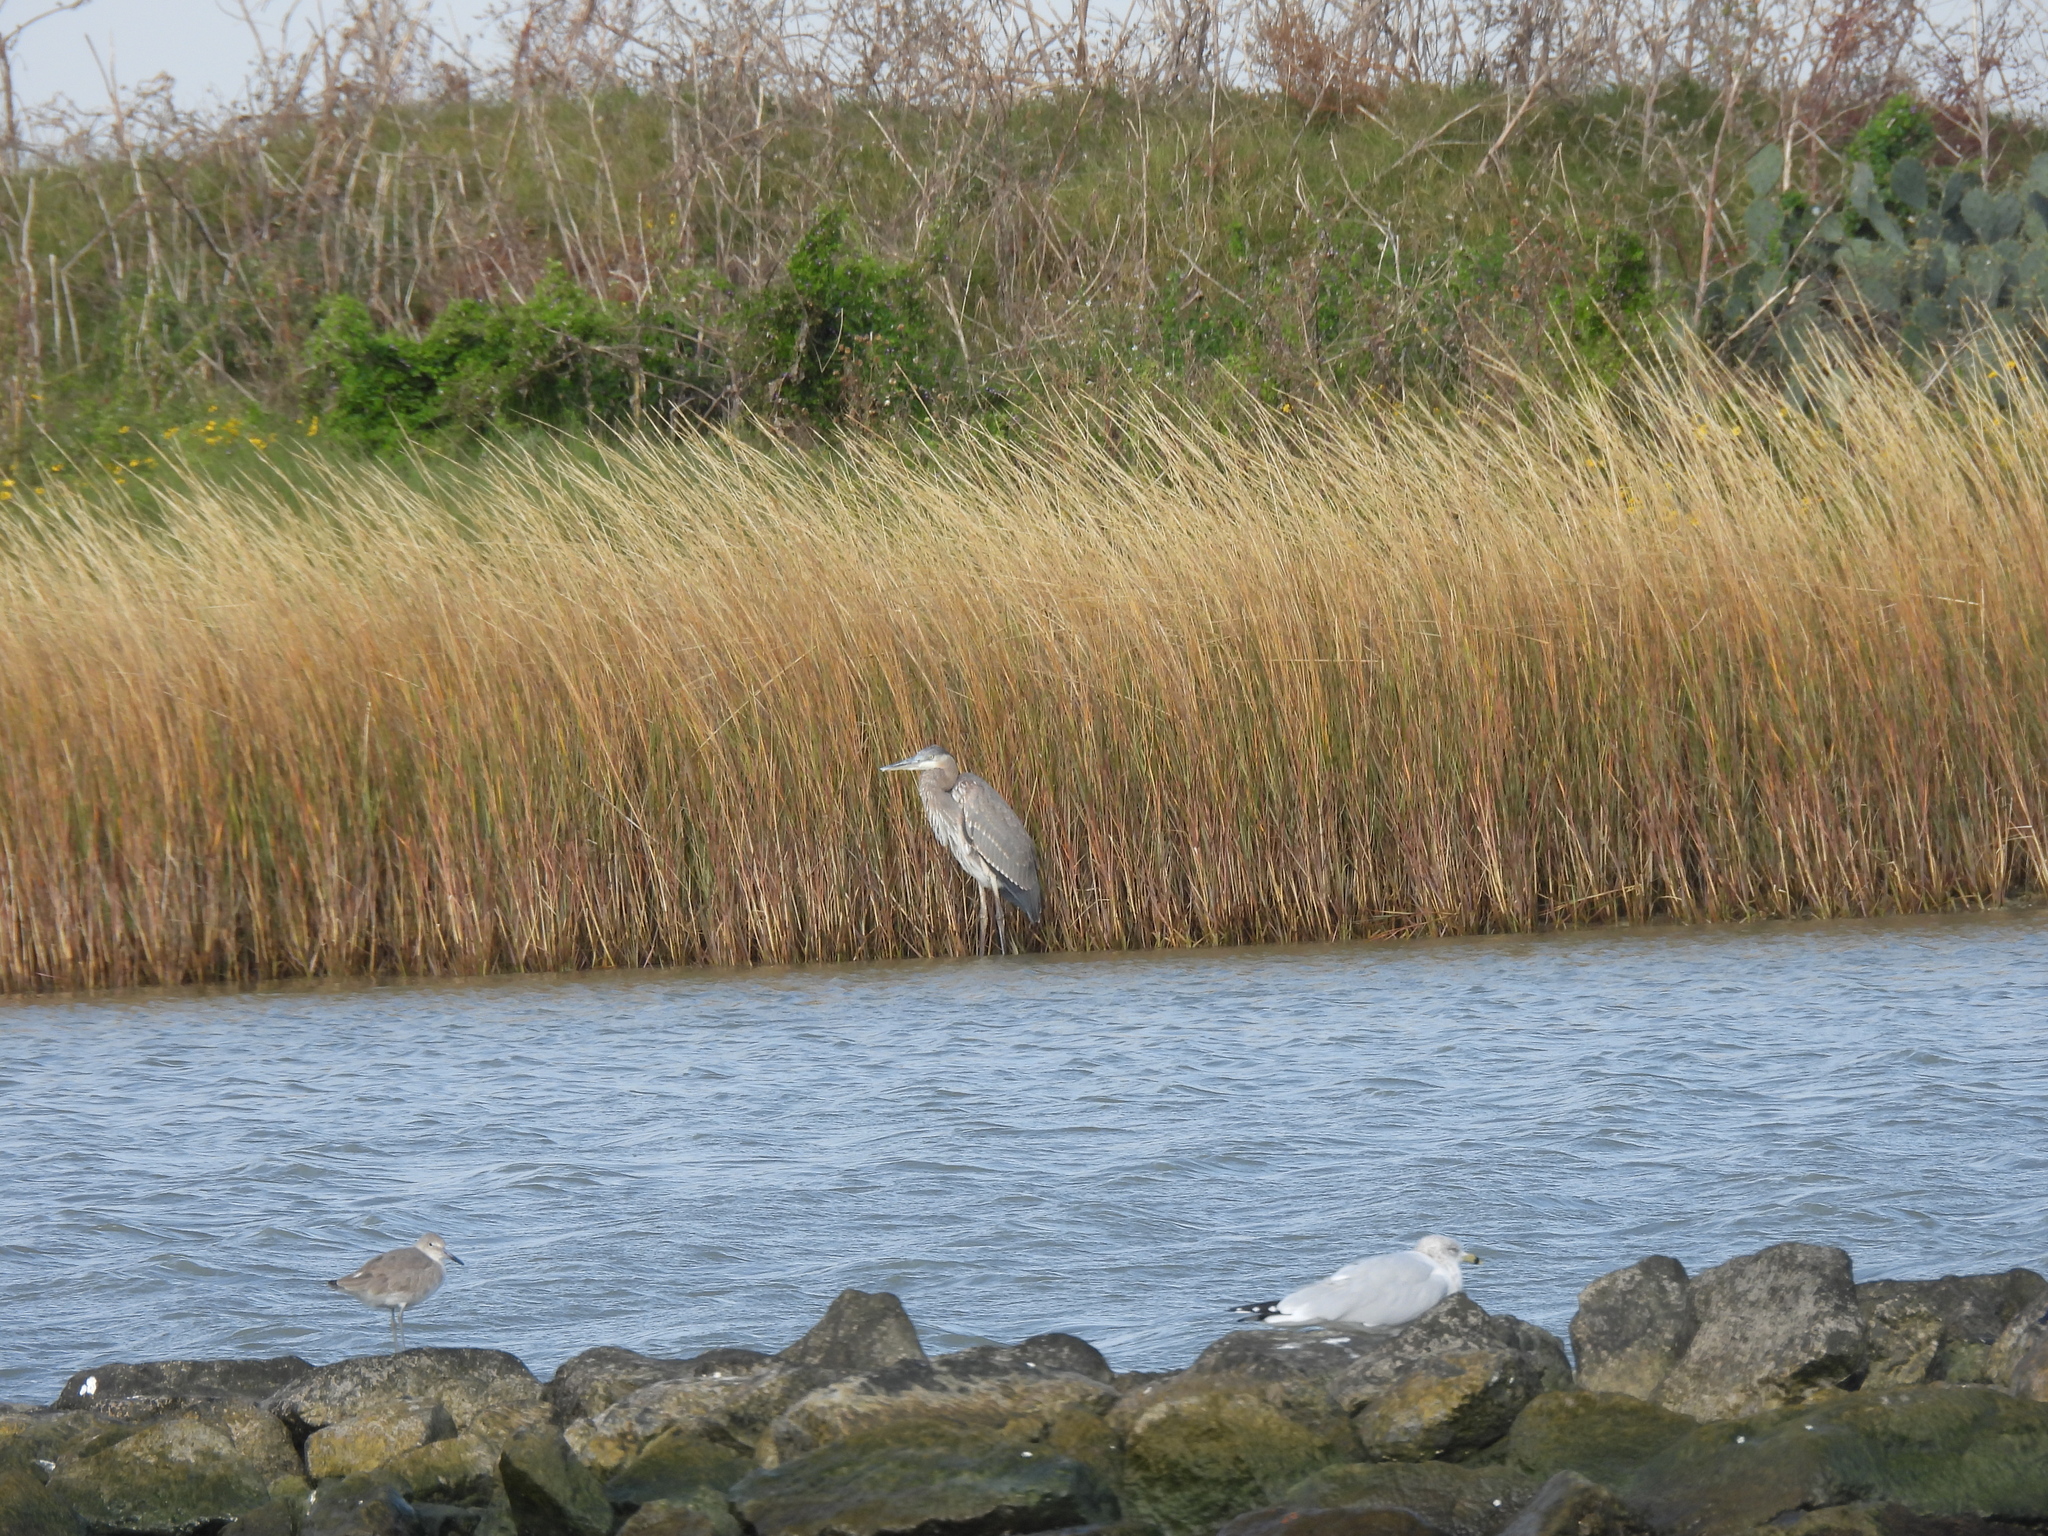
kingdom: Animalia
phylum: Chordata
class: Aves
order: Pelecaniformes
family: Ardeidae
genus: Ardea
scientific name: Ardea herodias
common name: Great blue heron
